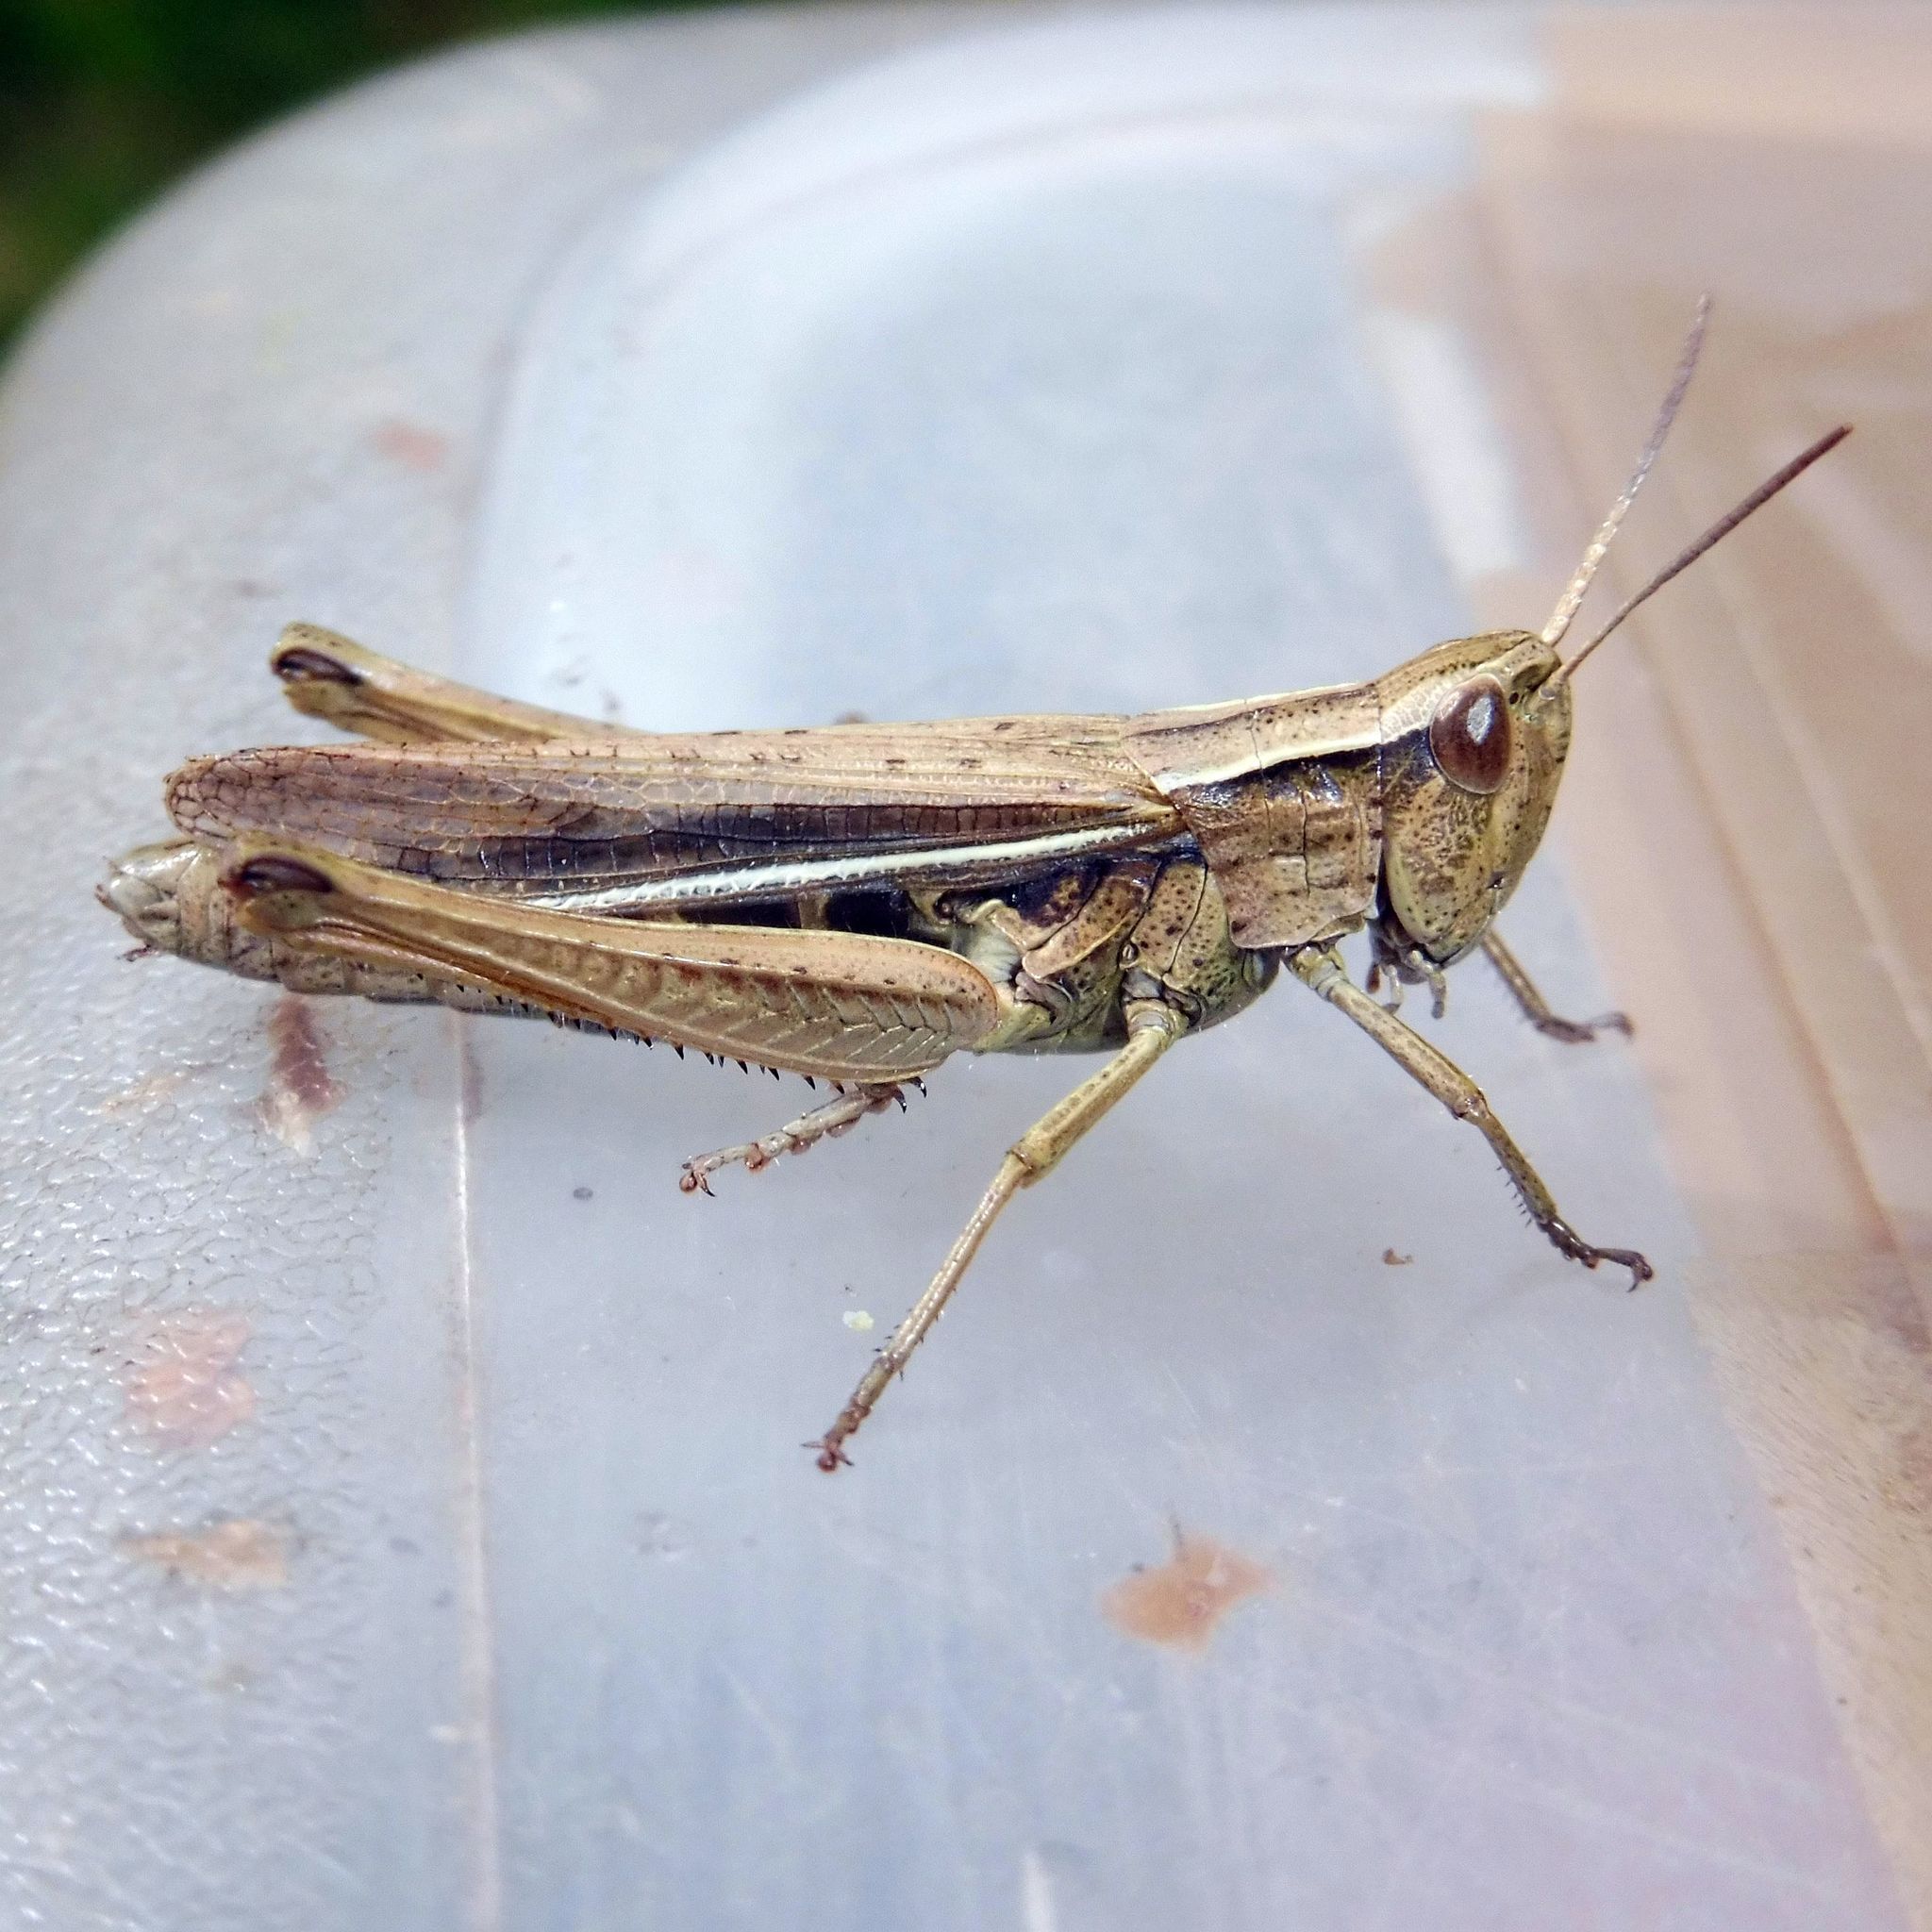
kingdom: Animalia
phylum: Arthropoda
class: Insecta
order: Orthoptera
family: Acrididae
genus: Chorthippus
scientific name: Chorthippus albomarginatus
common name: Lesser marsh grasshopper
